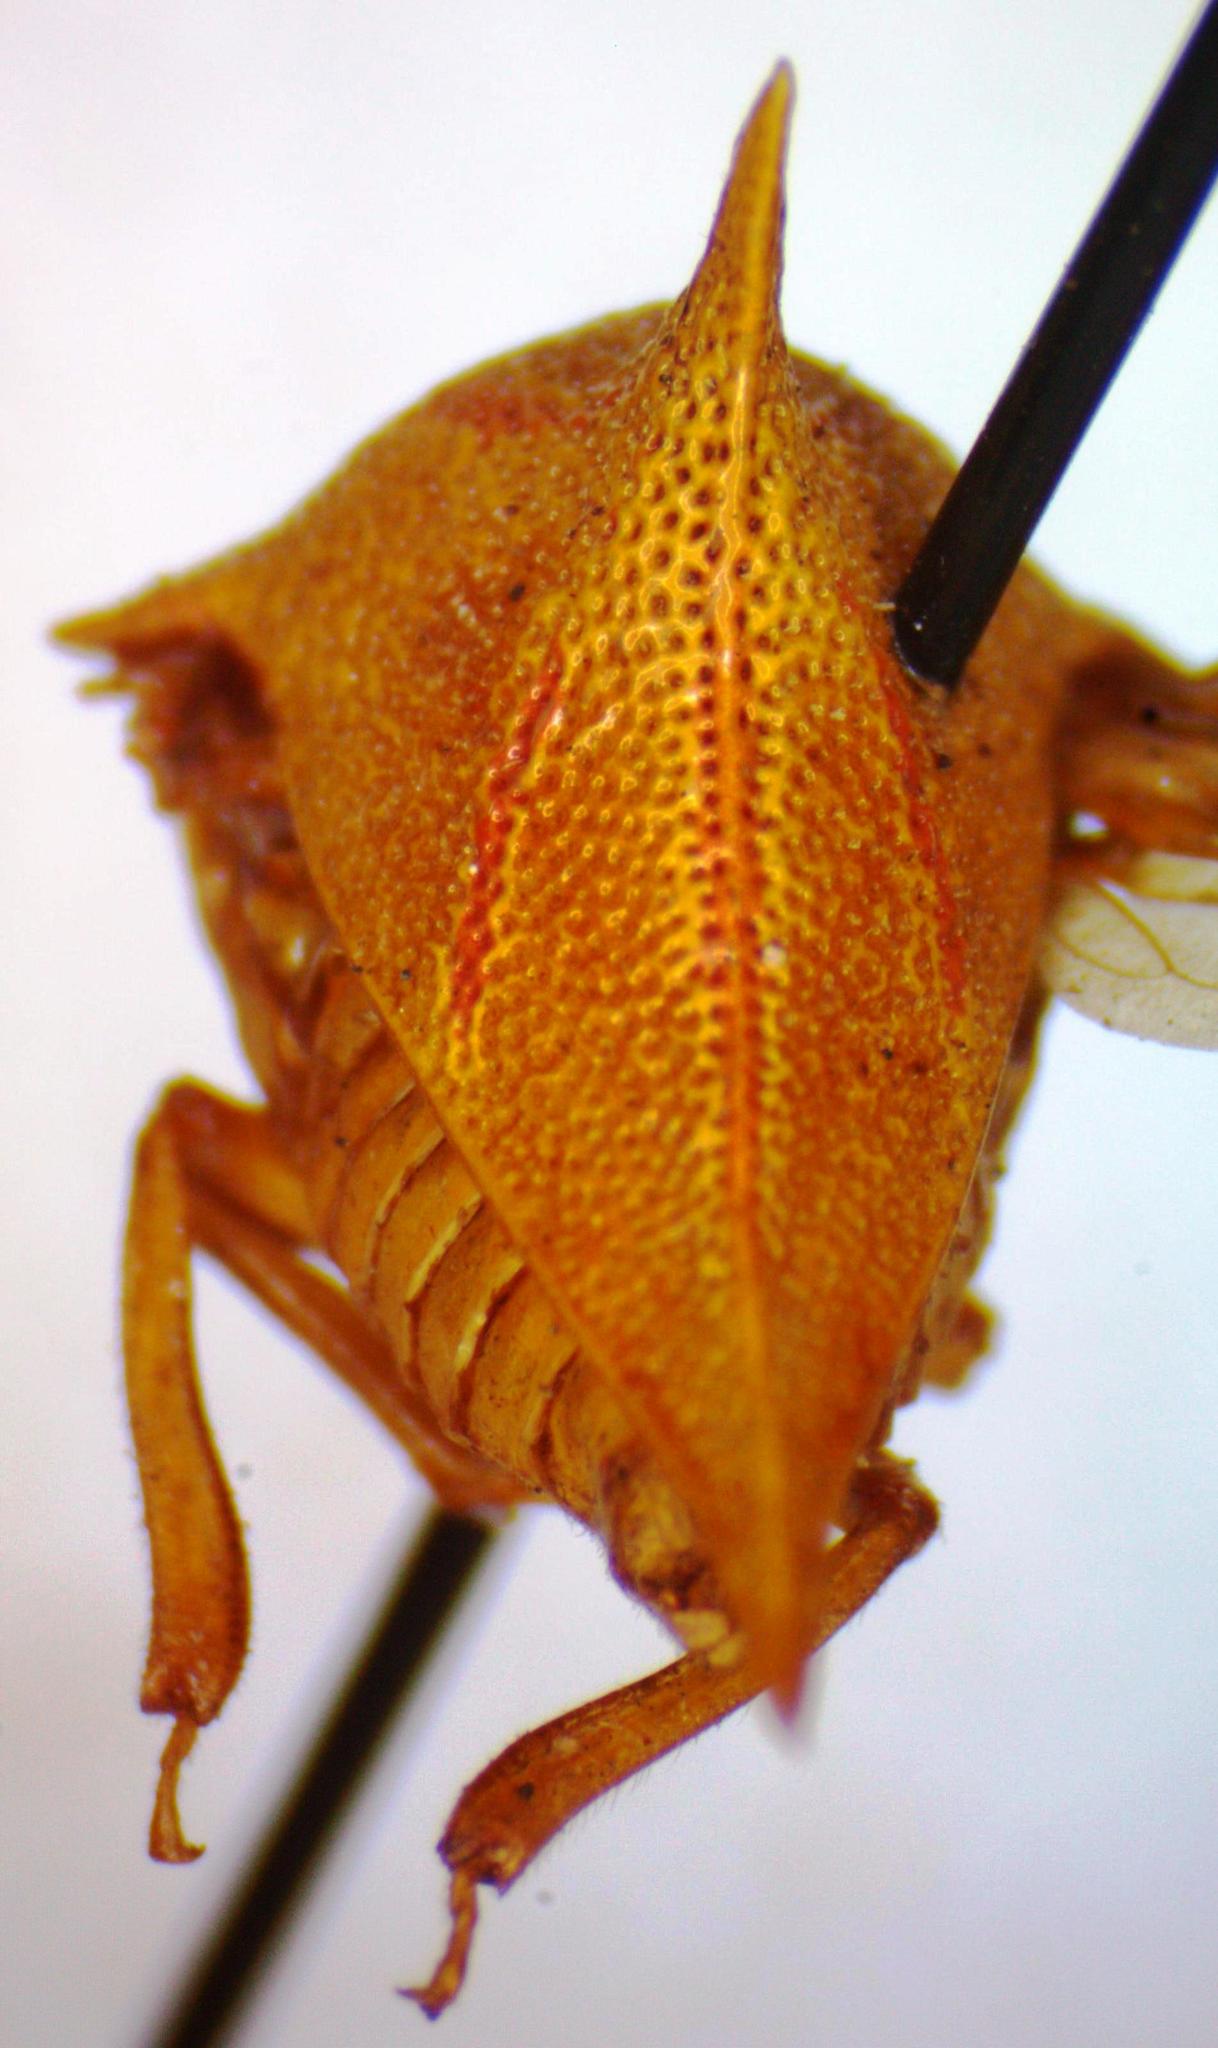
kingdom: Animalia
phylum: Arthropoda
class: Insecta
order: Hemiptera
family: Membracidae
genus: Umbonia
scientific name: Umbonia spinosa
